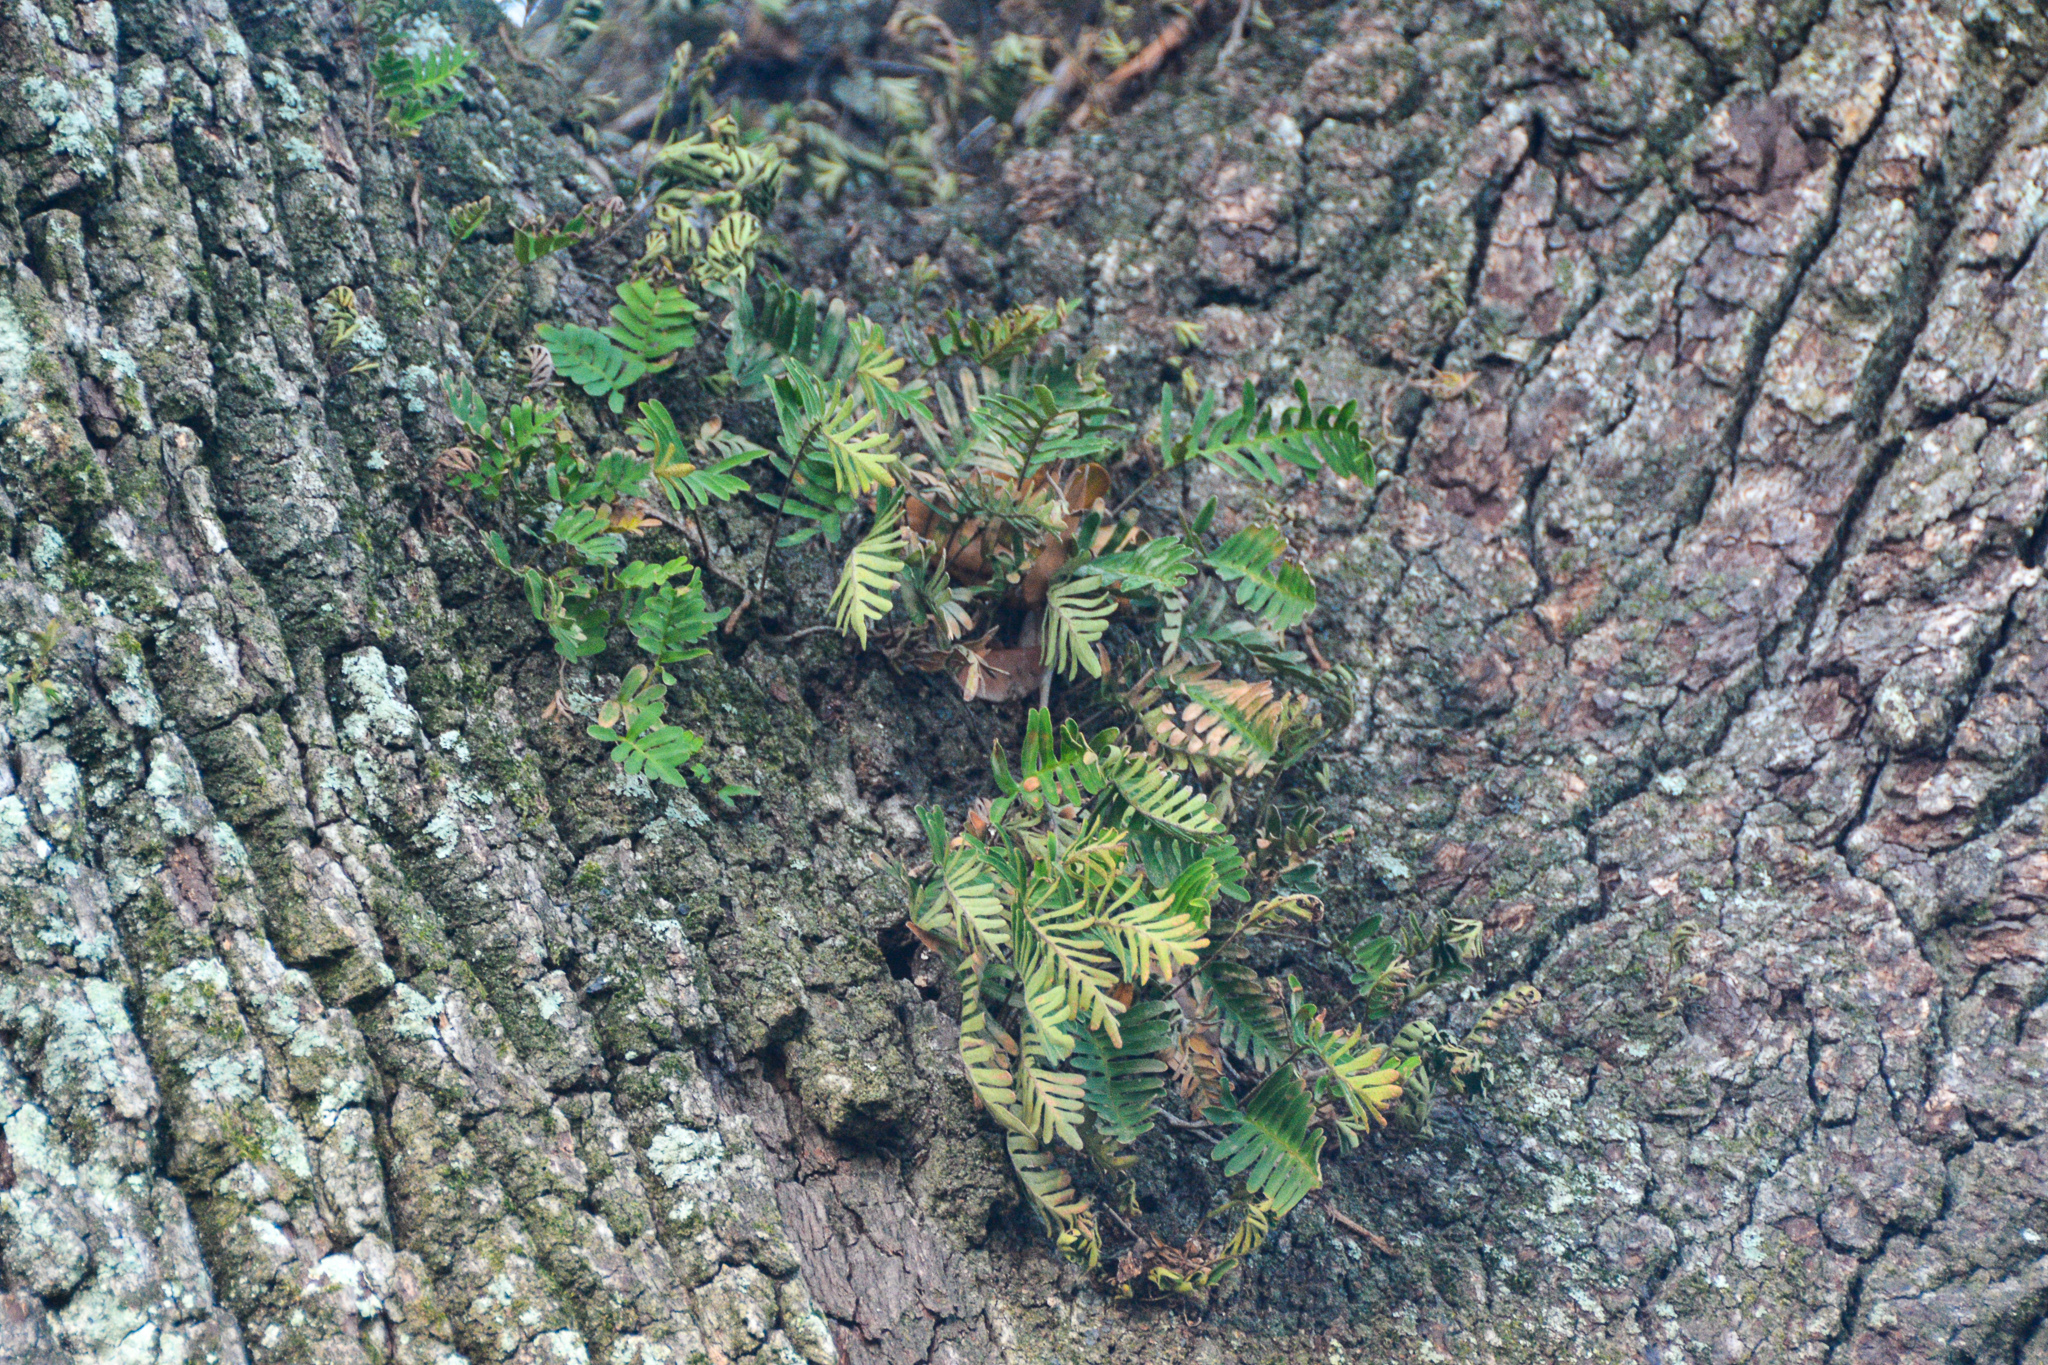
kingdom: Plantae
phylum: Tracheophyta
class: Polypodiopsida
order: Polypodiales
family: Polypodiaceae
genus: Pleopeltis
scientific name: Pleopeltis michauxiana
